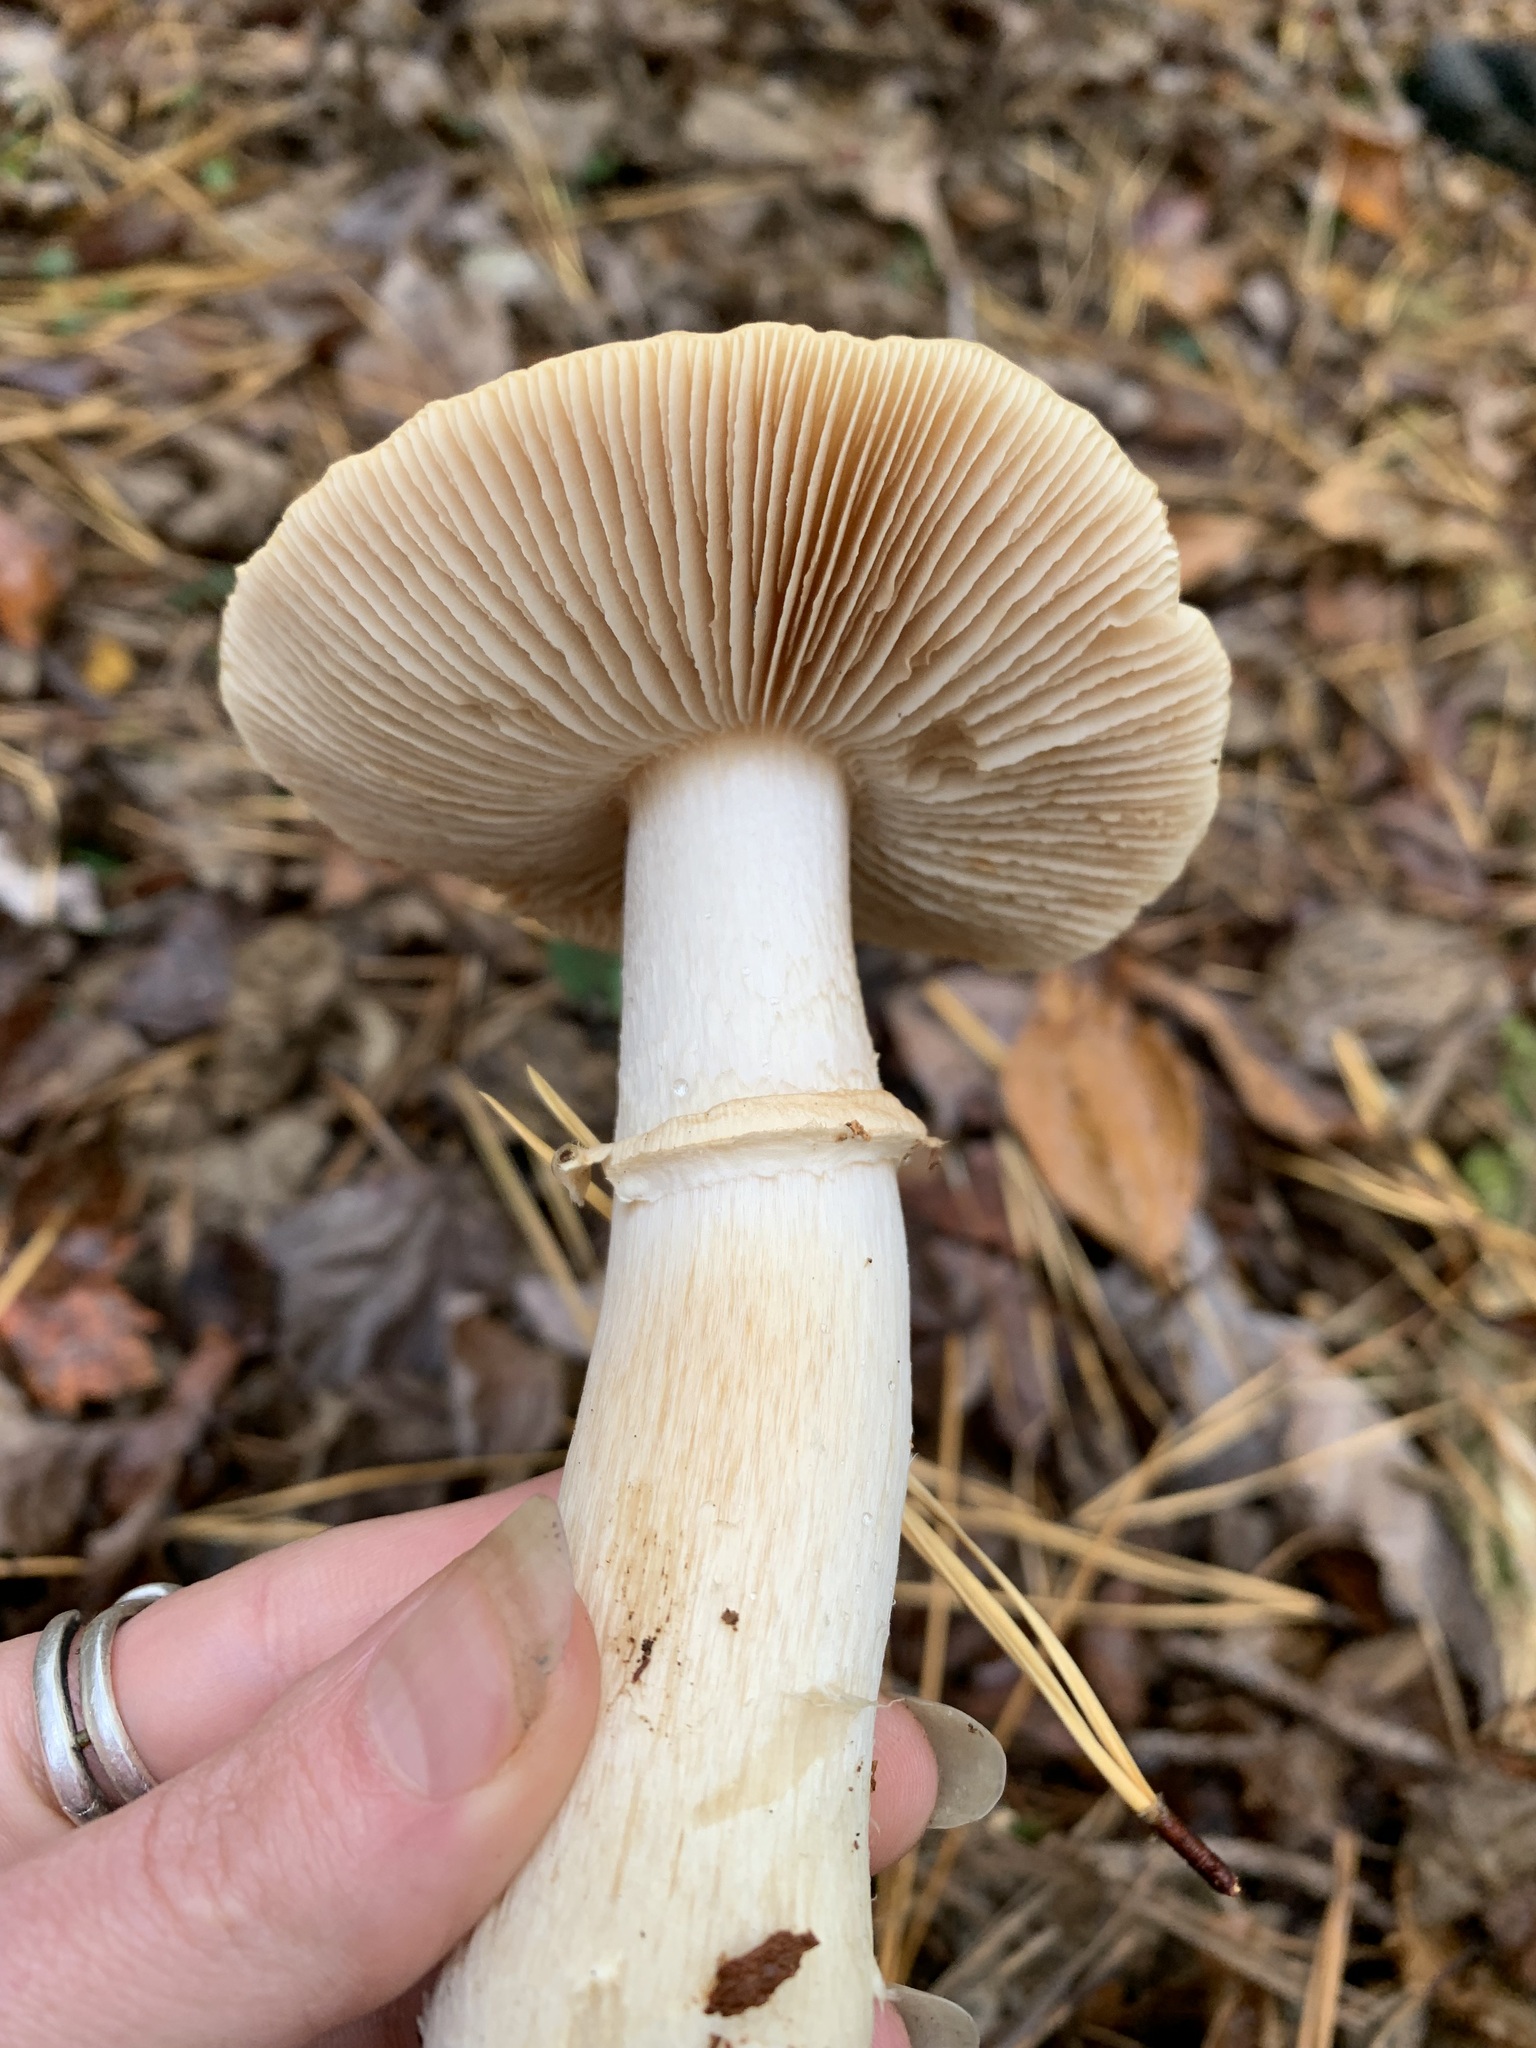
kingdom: Fungi
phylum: Basidiomycota
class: Agaricomycetes
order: Agaricales
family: Cortinariaceae
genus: Cortinarius
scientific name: Cortinarius caperatus
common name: The gypsy
